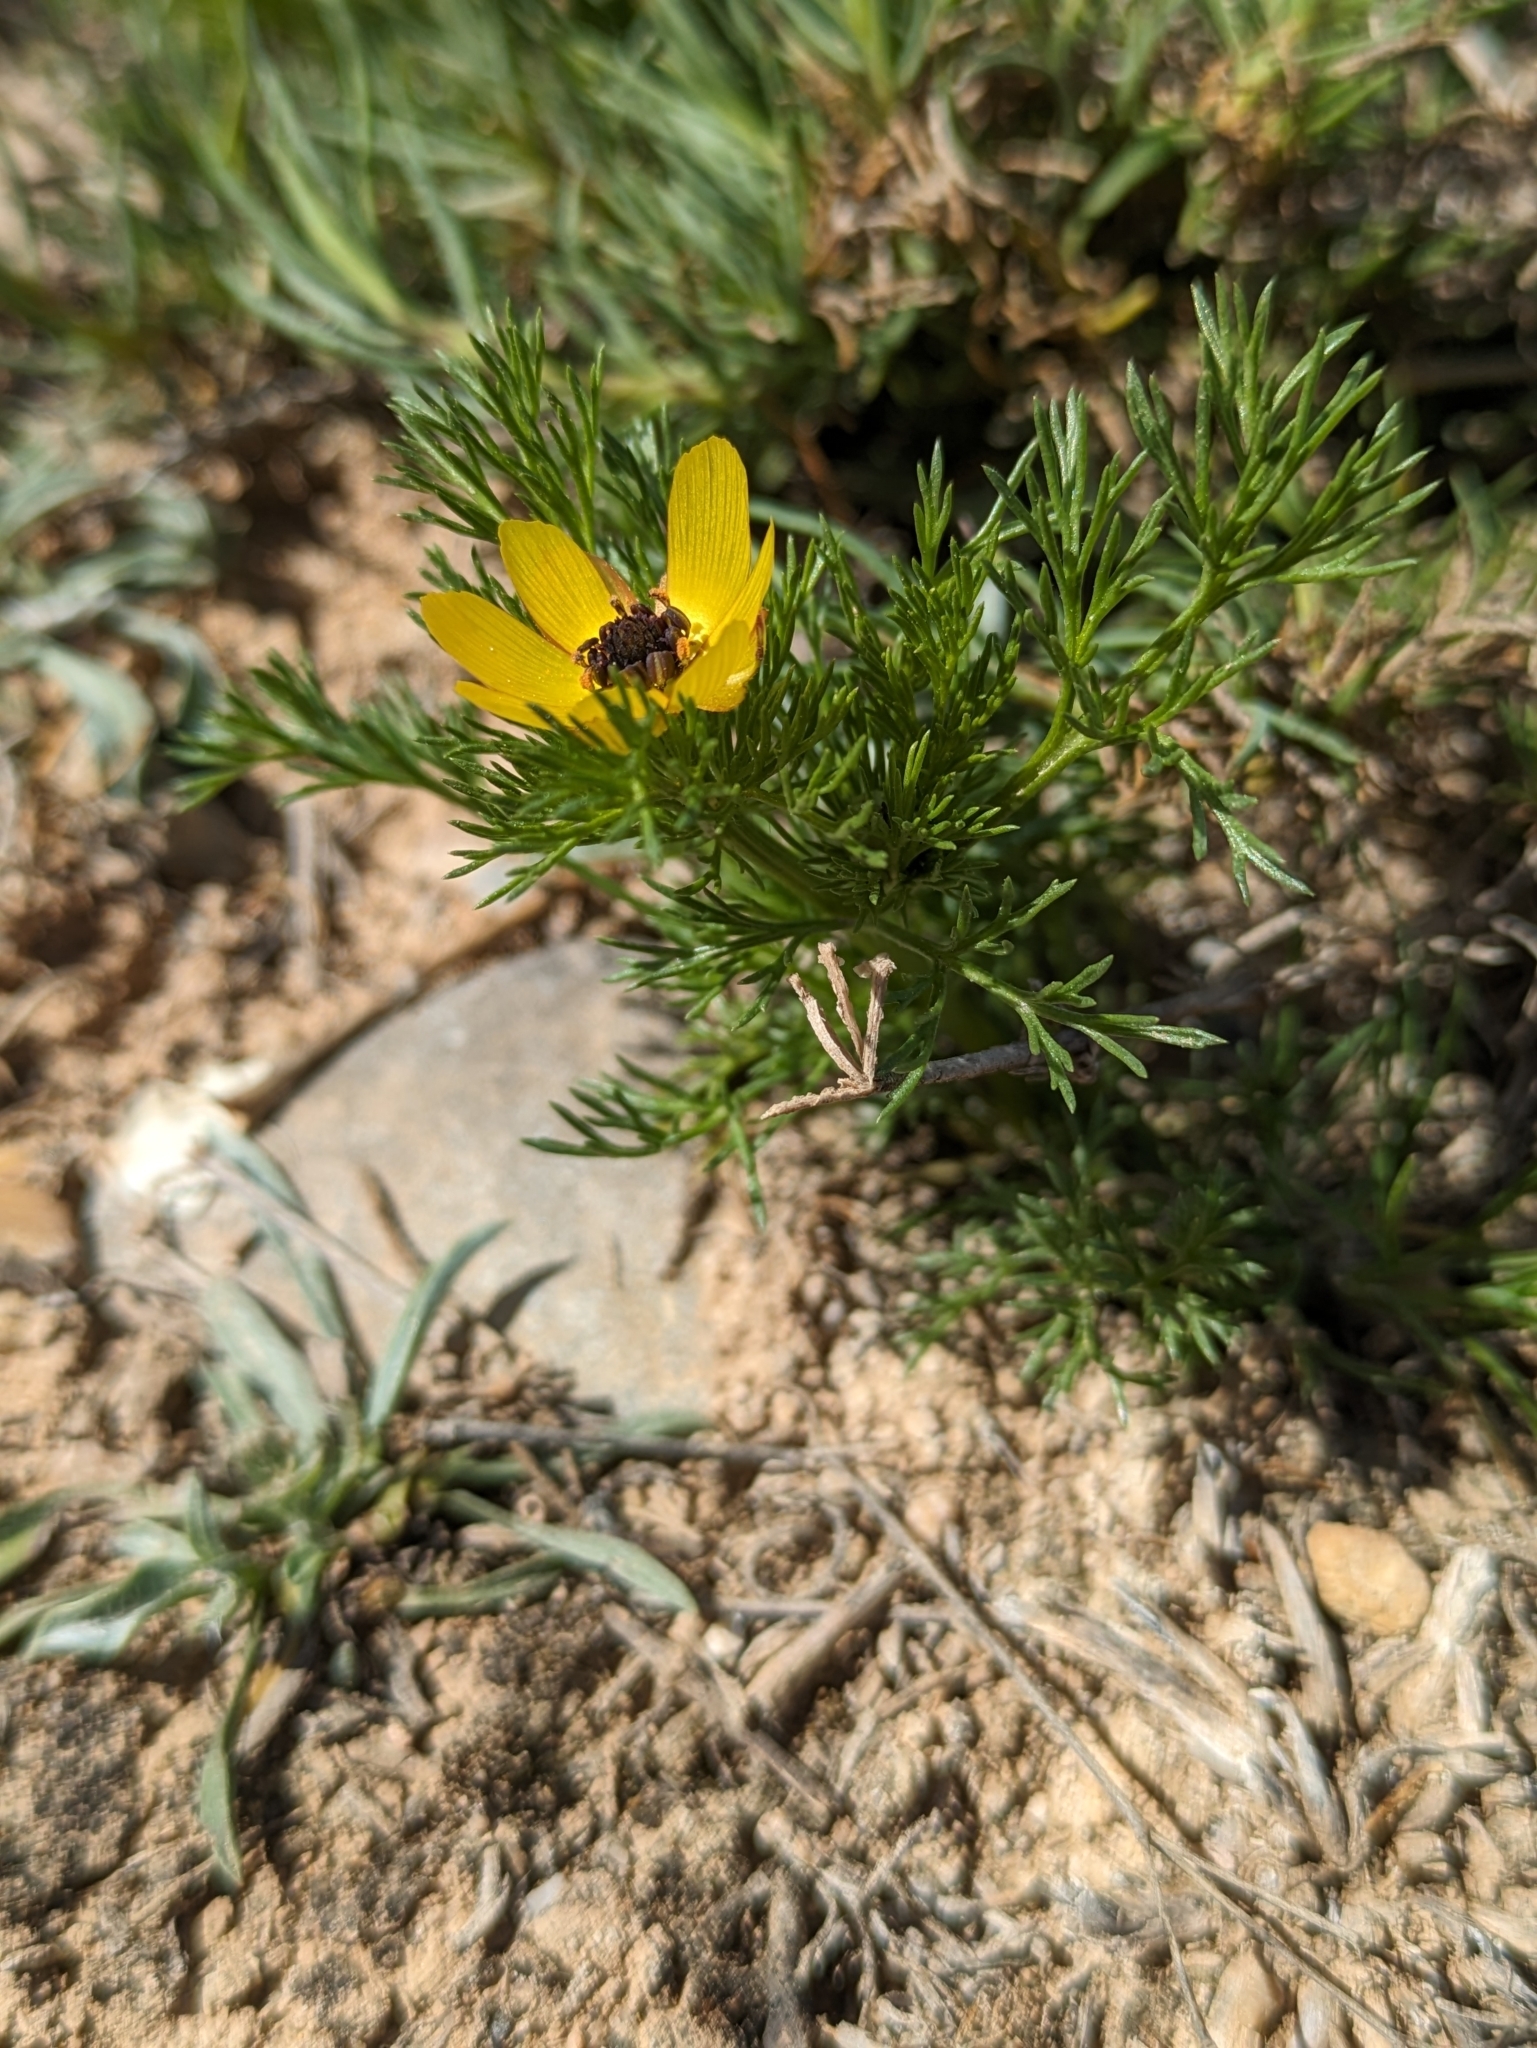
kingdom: Plantae
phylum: Tracheophyta
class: Magnoliopsida
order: Ranunculales
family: Ranunculaceae
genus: Adonis
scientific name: Adonis microcarpa
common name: Pheasant's-eye
